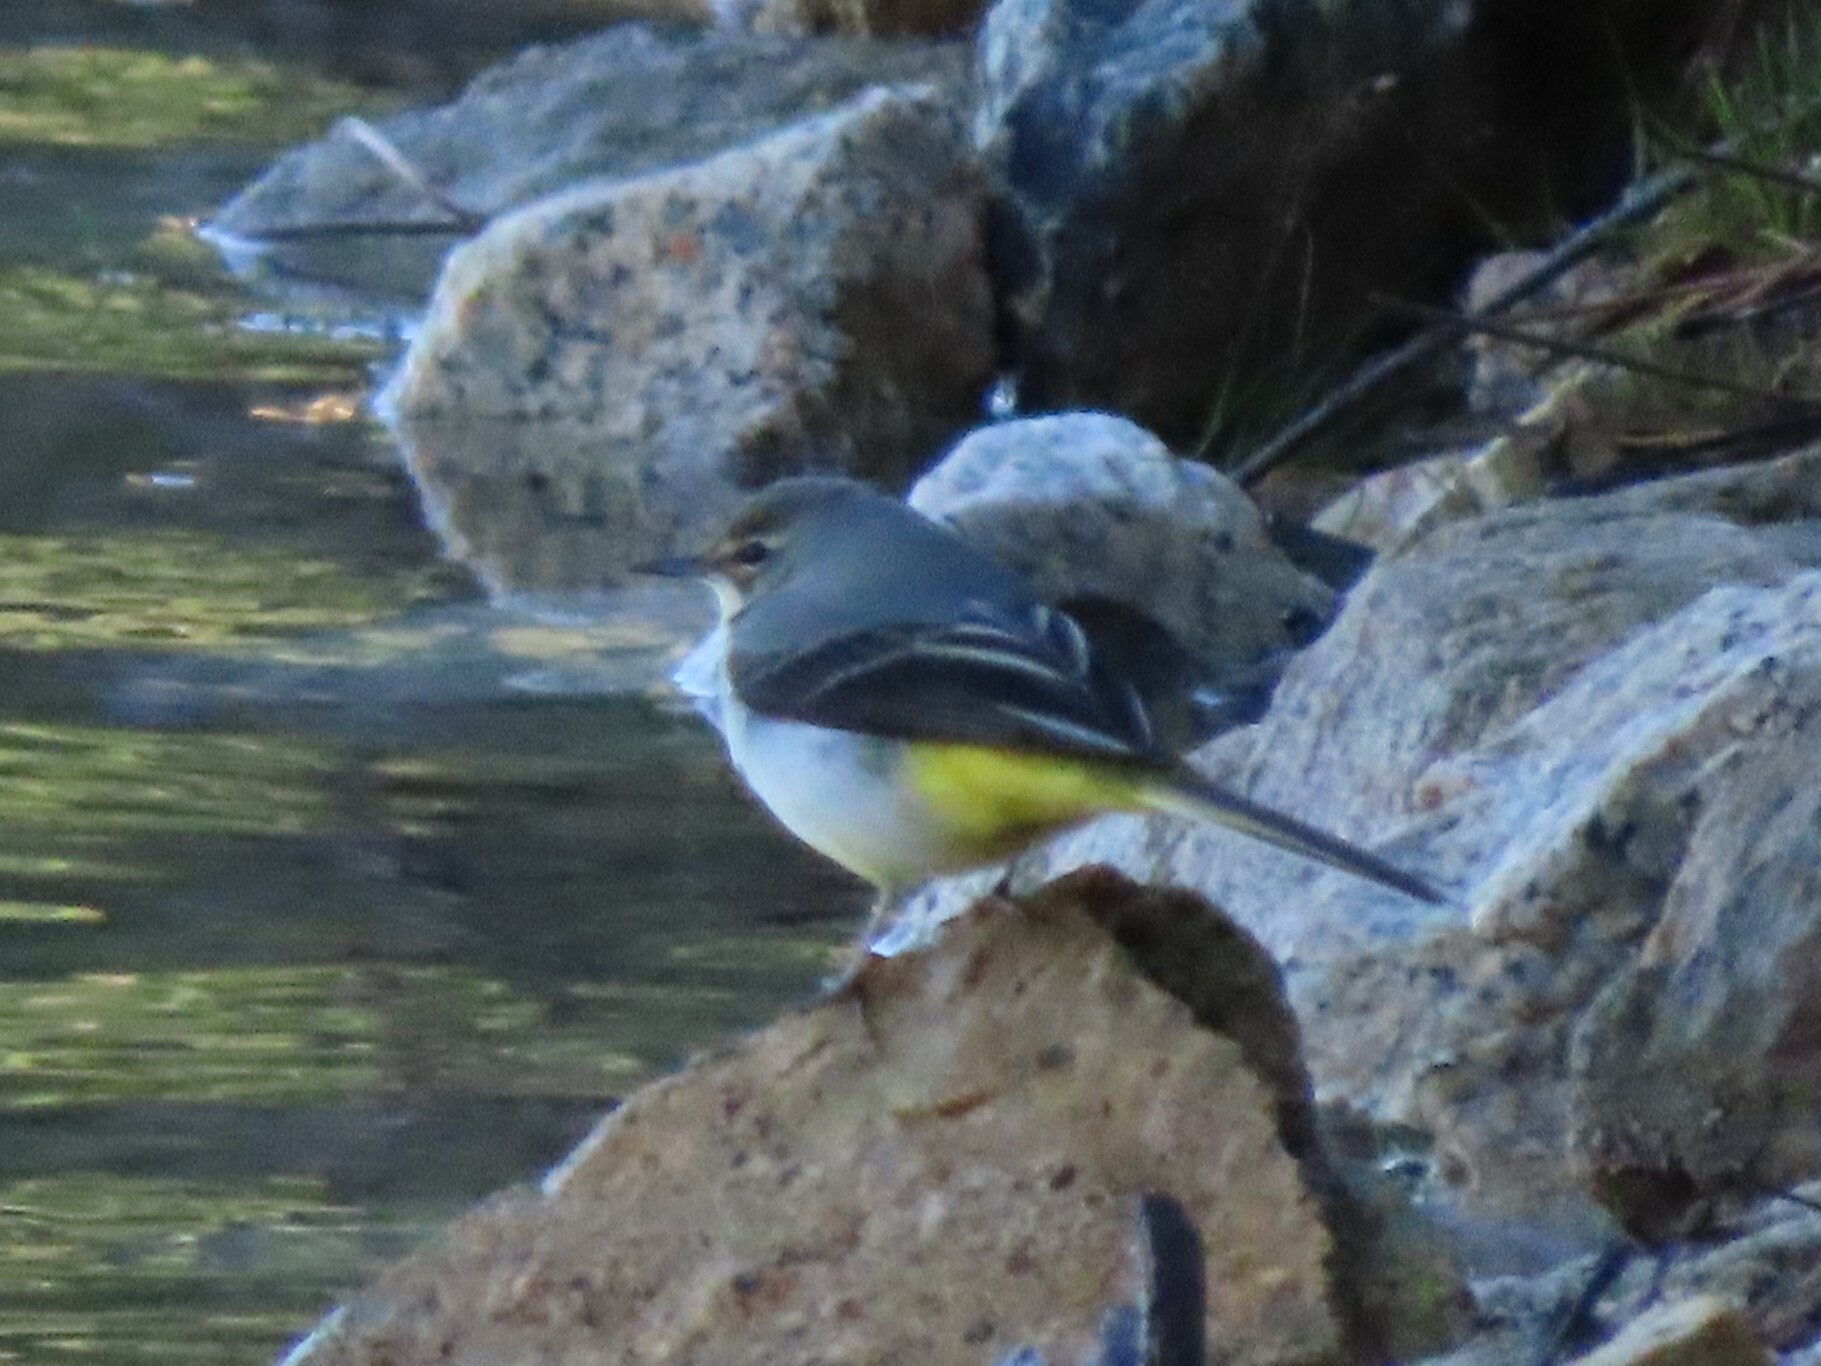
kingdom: Animalia
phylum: Chordata
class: Aves
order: Passeriformes
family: Motacillidae
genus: Motacilla
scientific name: Motacilla cinerea
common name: Grey wagtail
